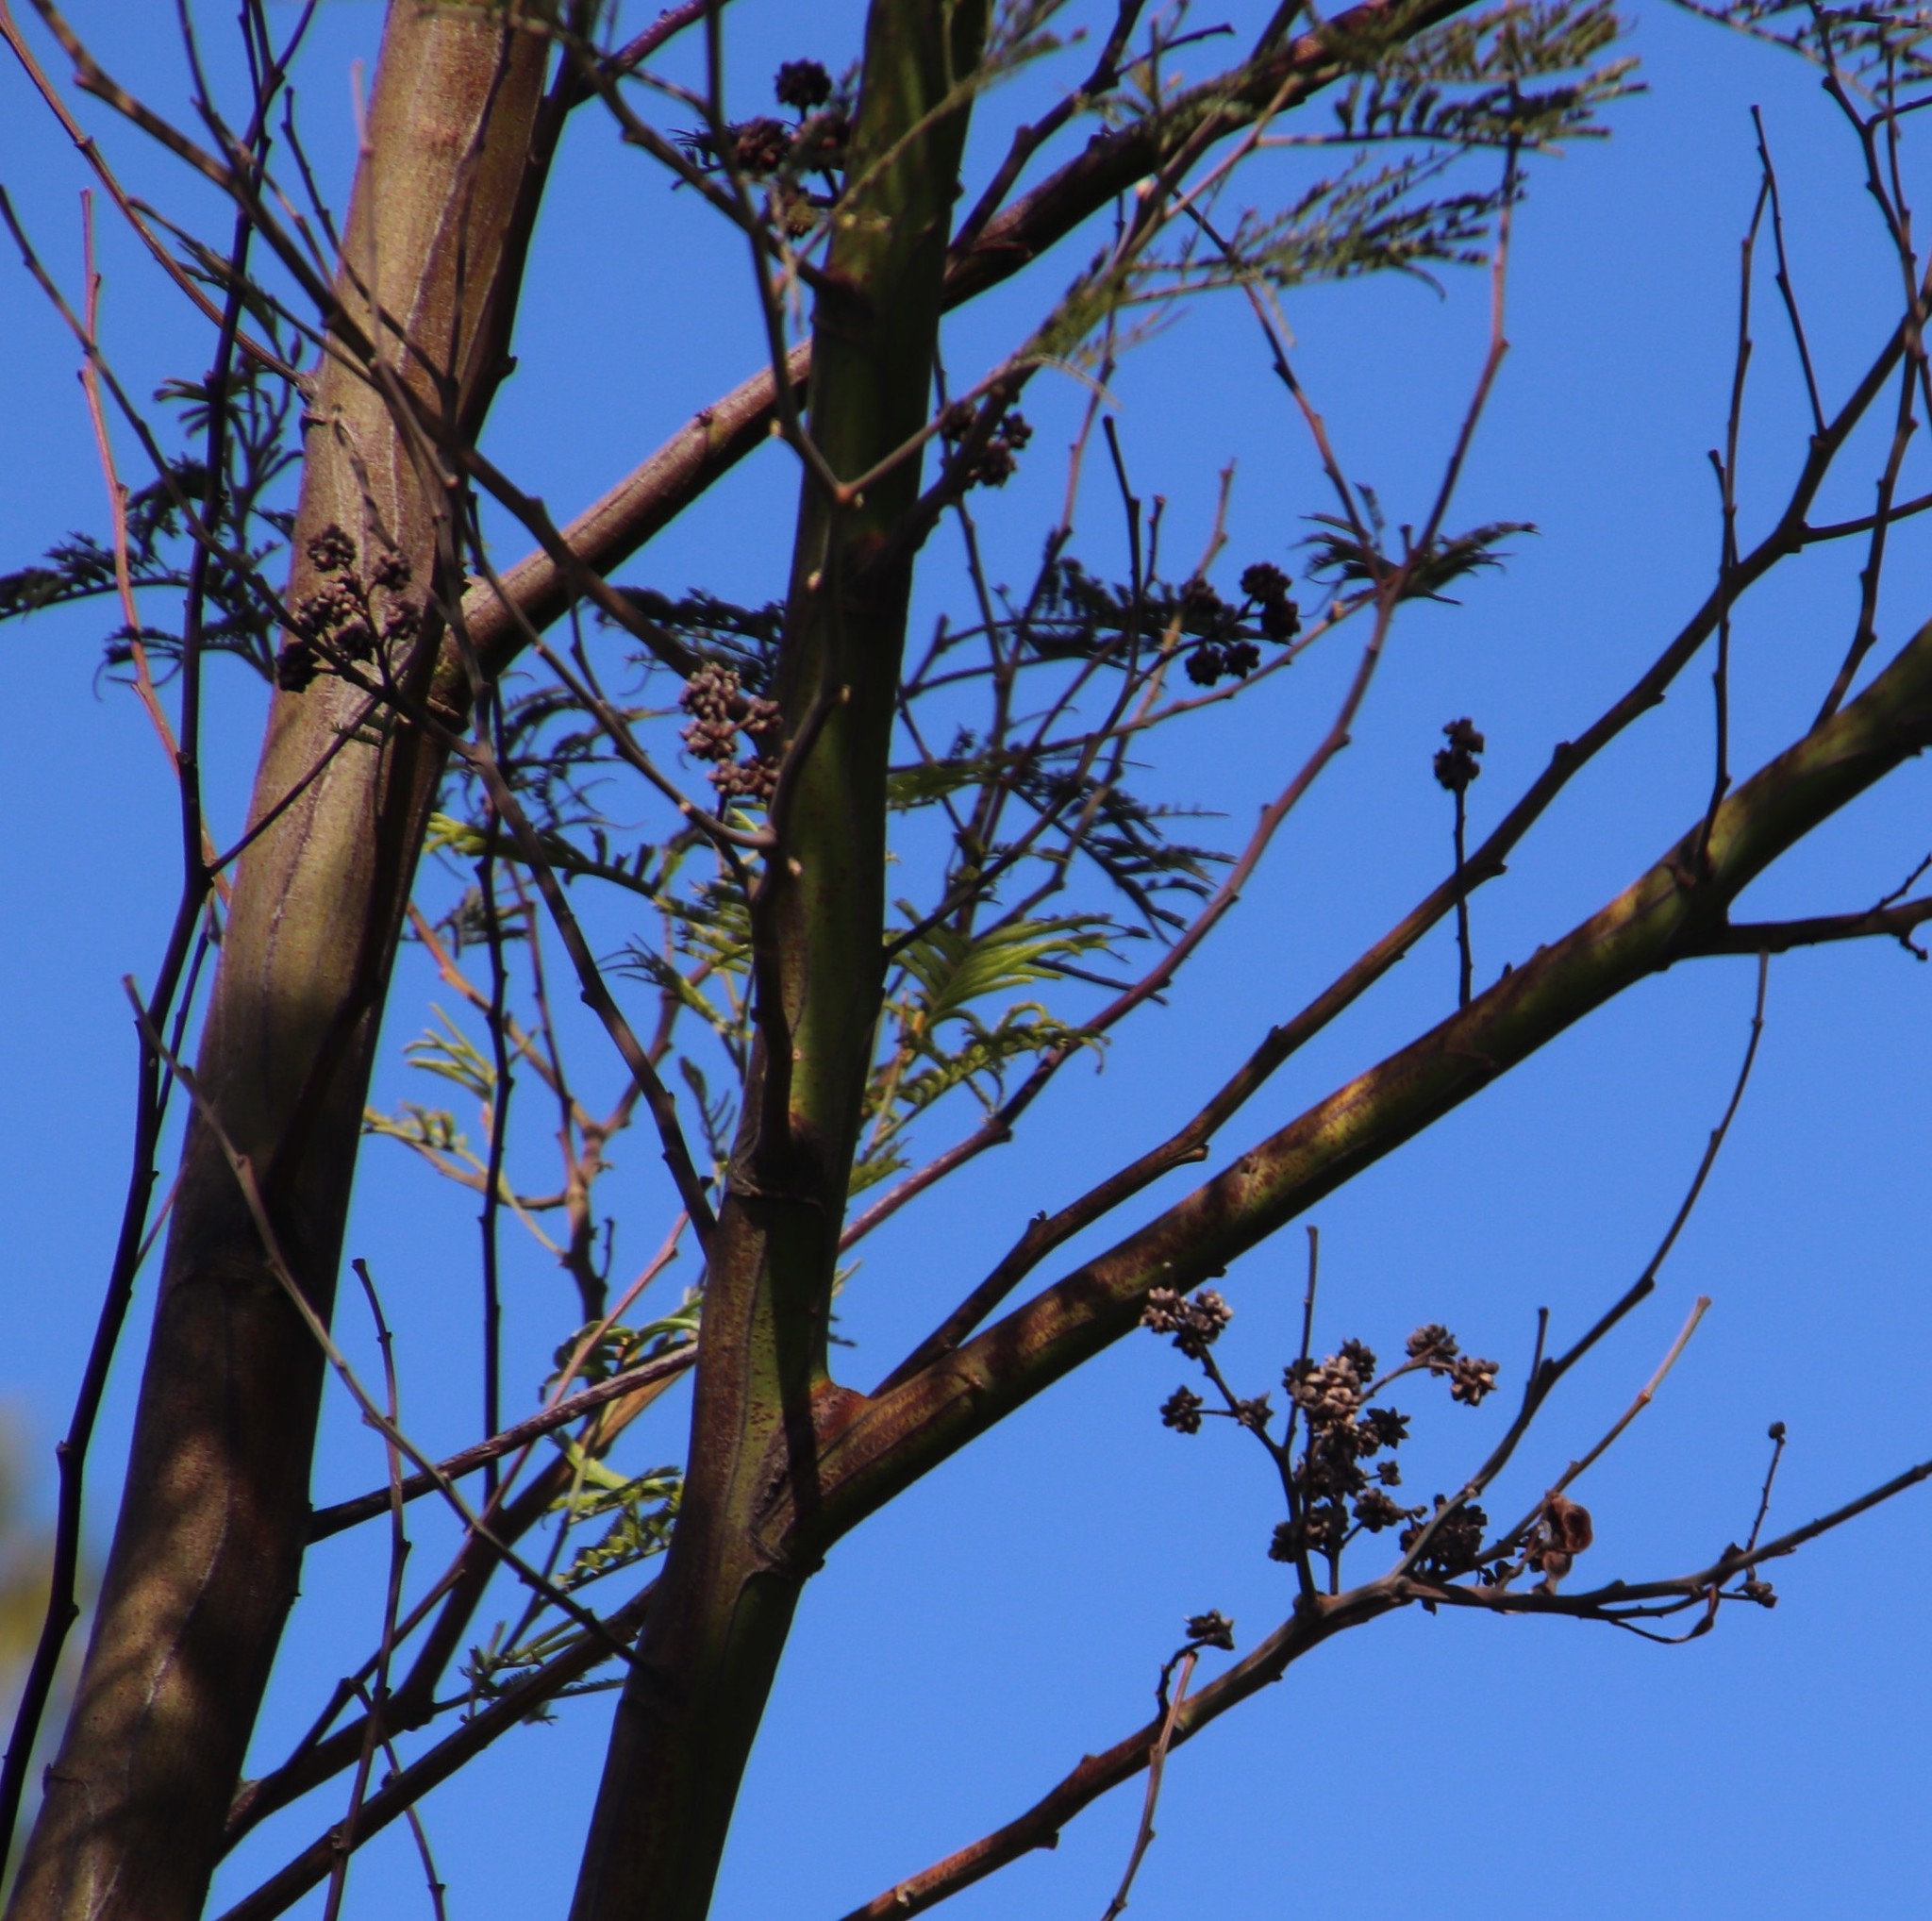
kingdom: Animalia
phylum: Arthropoda
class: Insecta
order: Diptera
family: Cecidomyiidae
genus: Dasineura
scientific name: Dasineura rubiformis
